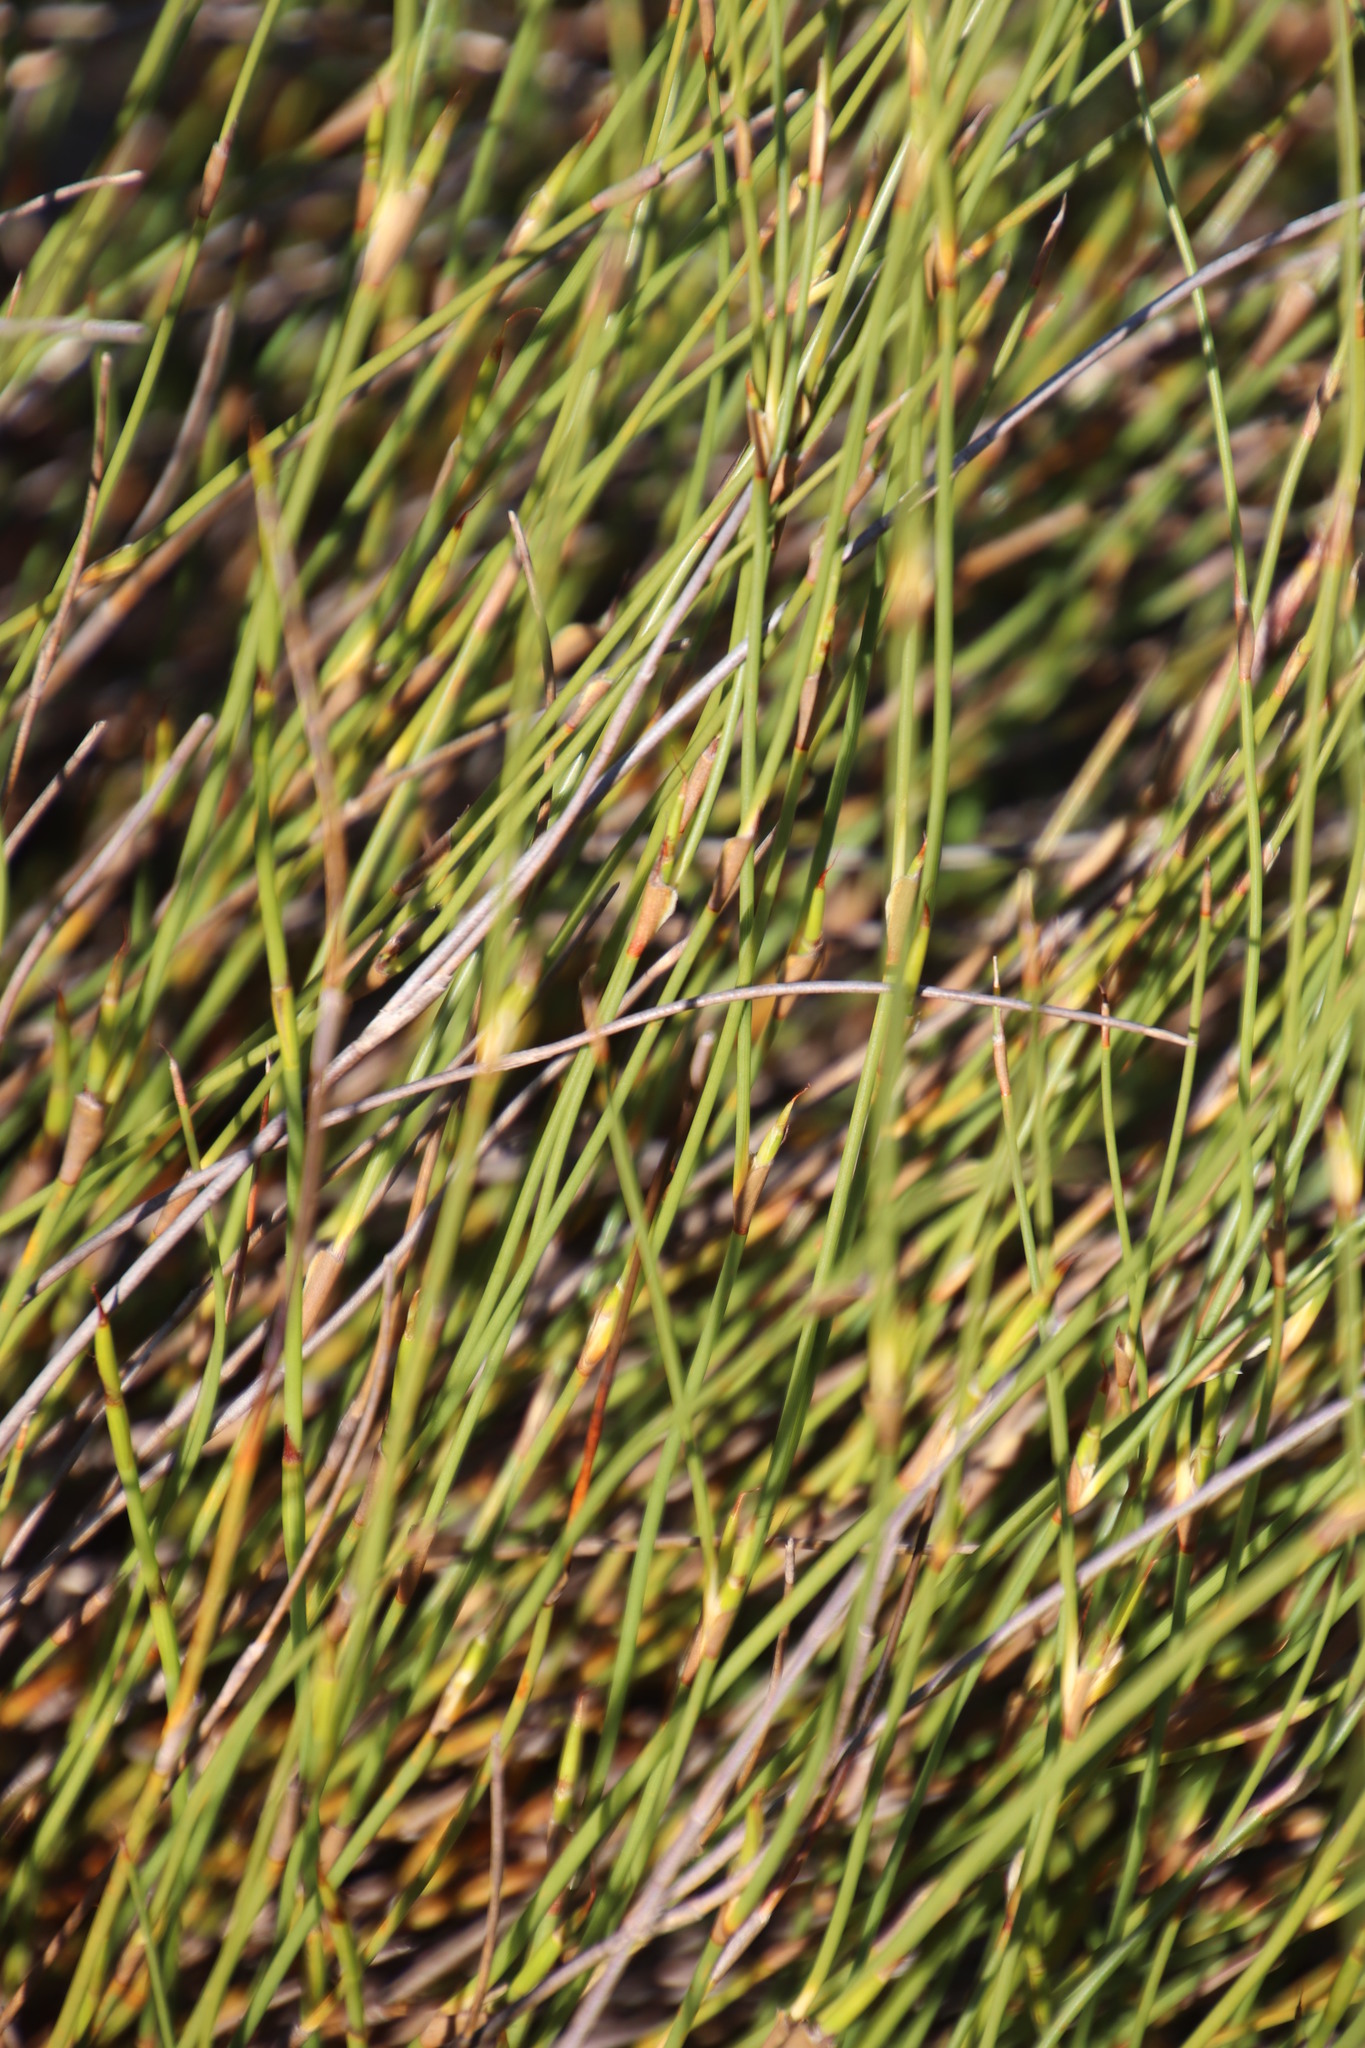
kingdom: Plantae
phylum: Tracheophyta
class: Liliopsida
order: Poales
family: Restionaceae
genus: Mastersiella
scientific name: Mastersiella digitata
